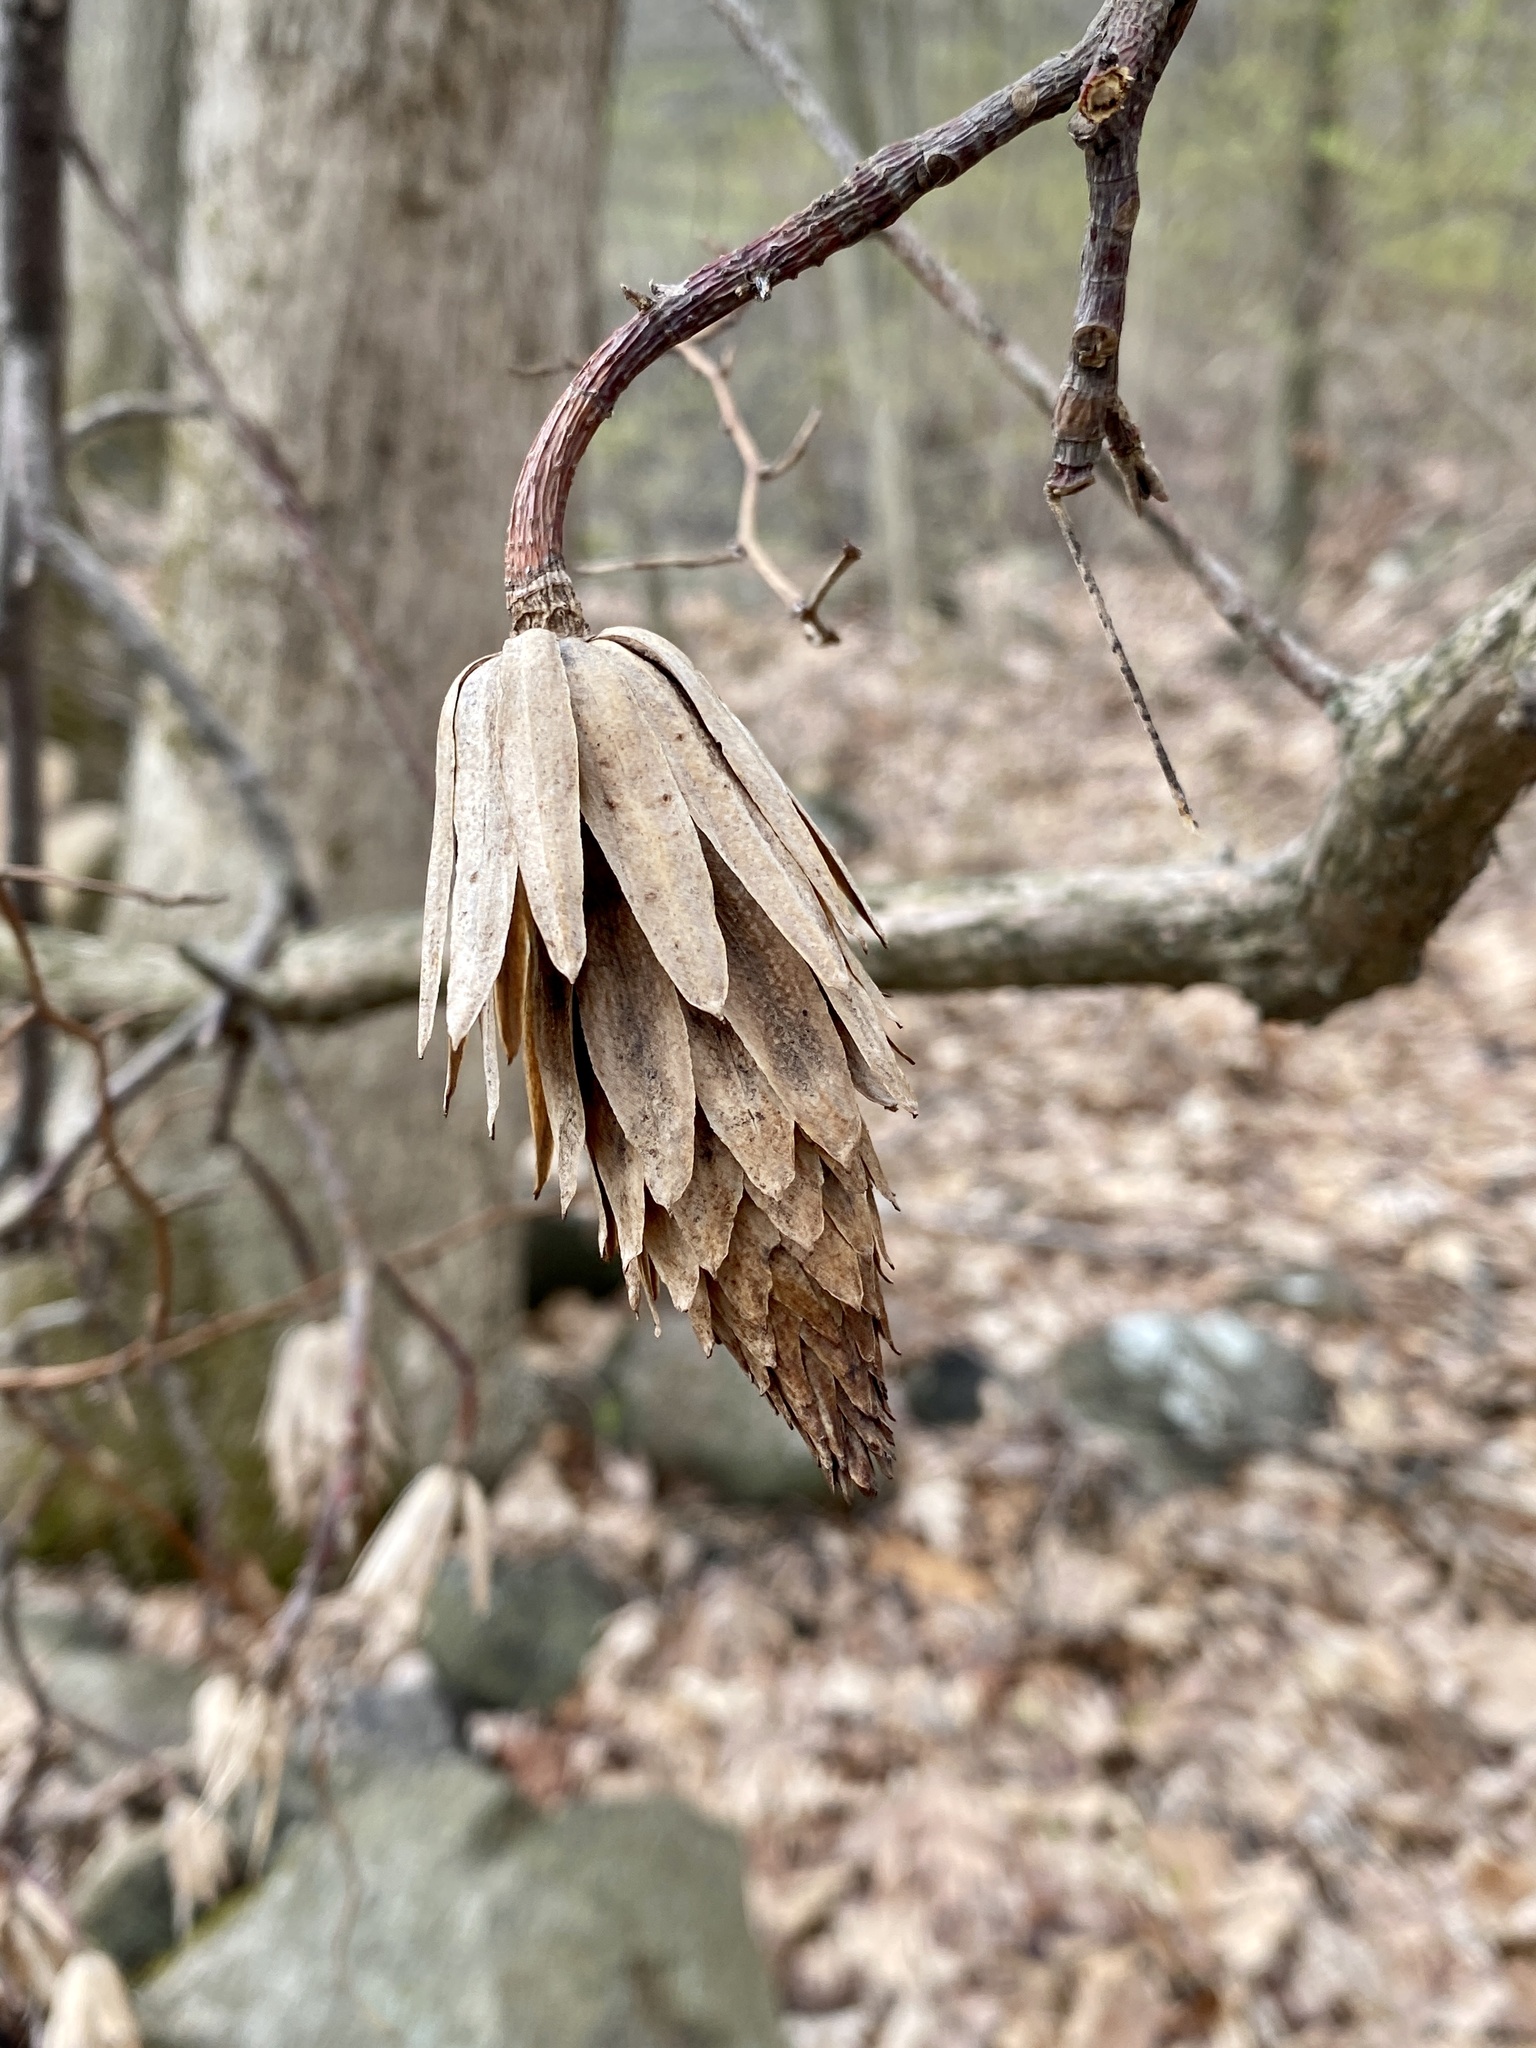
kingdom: Plantae
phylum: Tracheophyta
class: Magnoliopsida
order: Magnoliales
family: Magnoliaceae
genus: Liriodendron
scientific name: Liriodendron tulipifera
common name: Tulip tree
